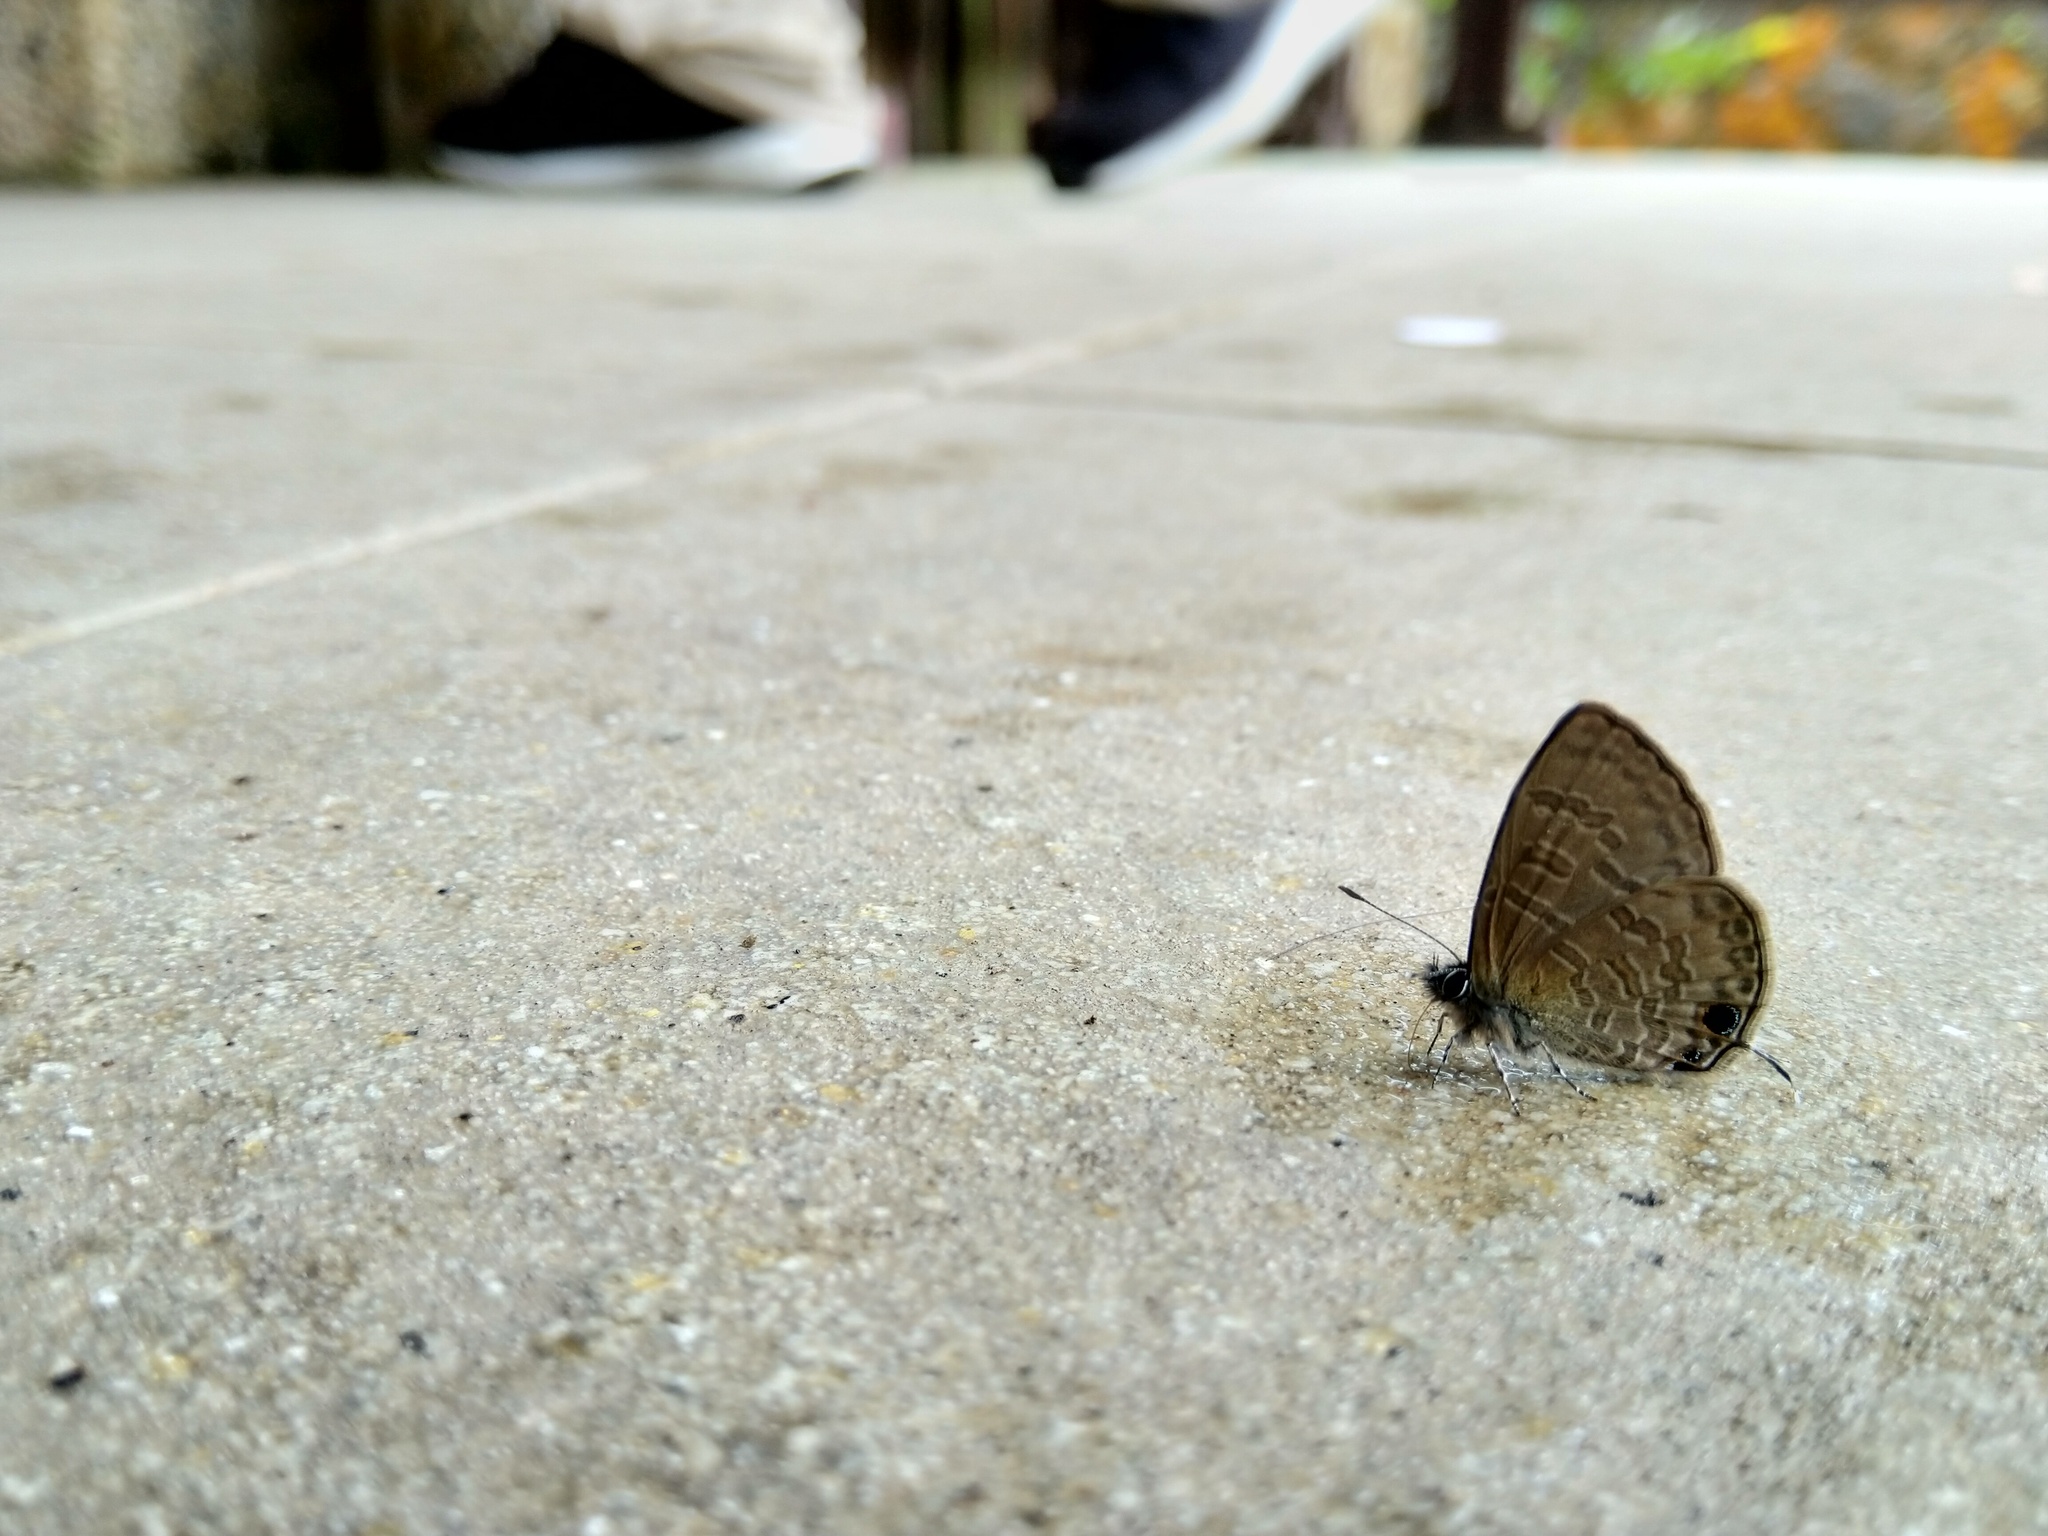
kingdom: Animalia
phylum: Arthropoda
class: Insecta
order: Lepidoptera
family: Lycaenidae
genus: Prosotas
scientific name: Prosotas nora
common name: Common line blue
